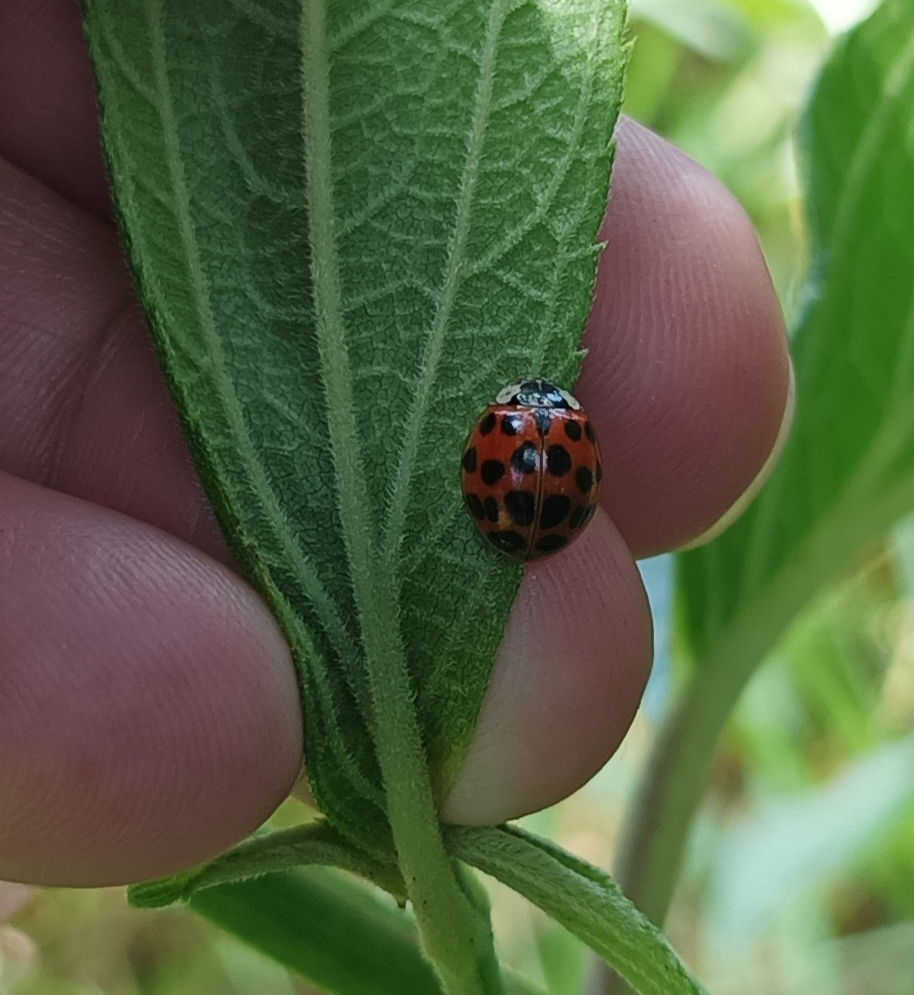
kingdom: Animalia
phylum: Arthropoda
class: Insecta
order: Coleoptera
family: Coccinellidae
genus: Harmonia
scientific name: Harmonia axyridis
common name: Harlequin ladybird
